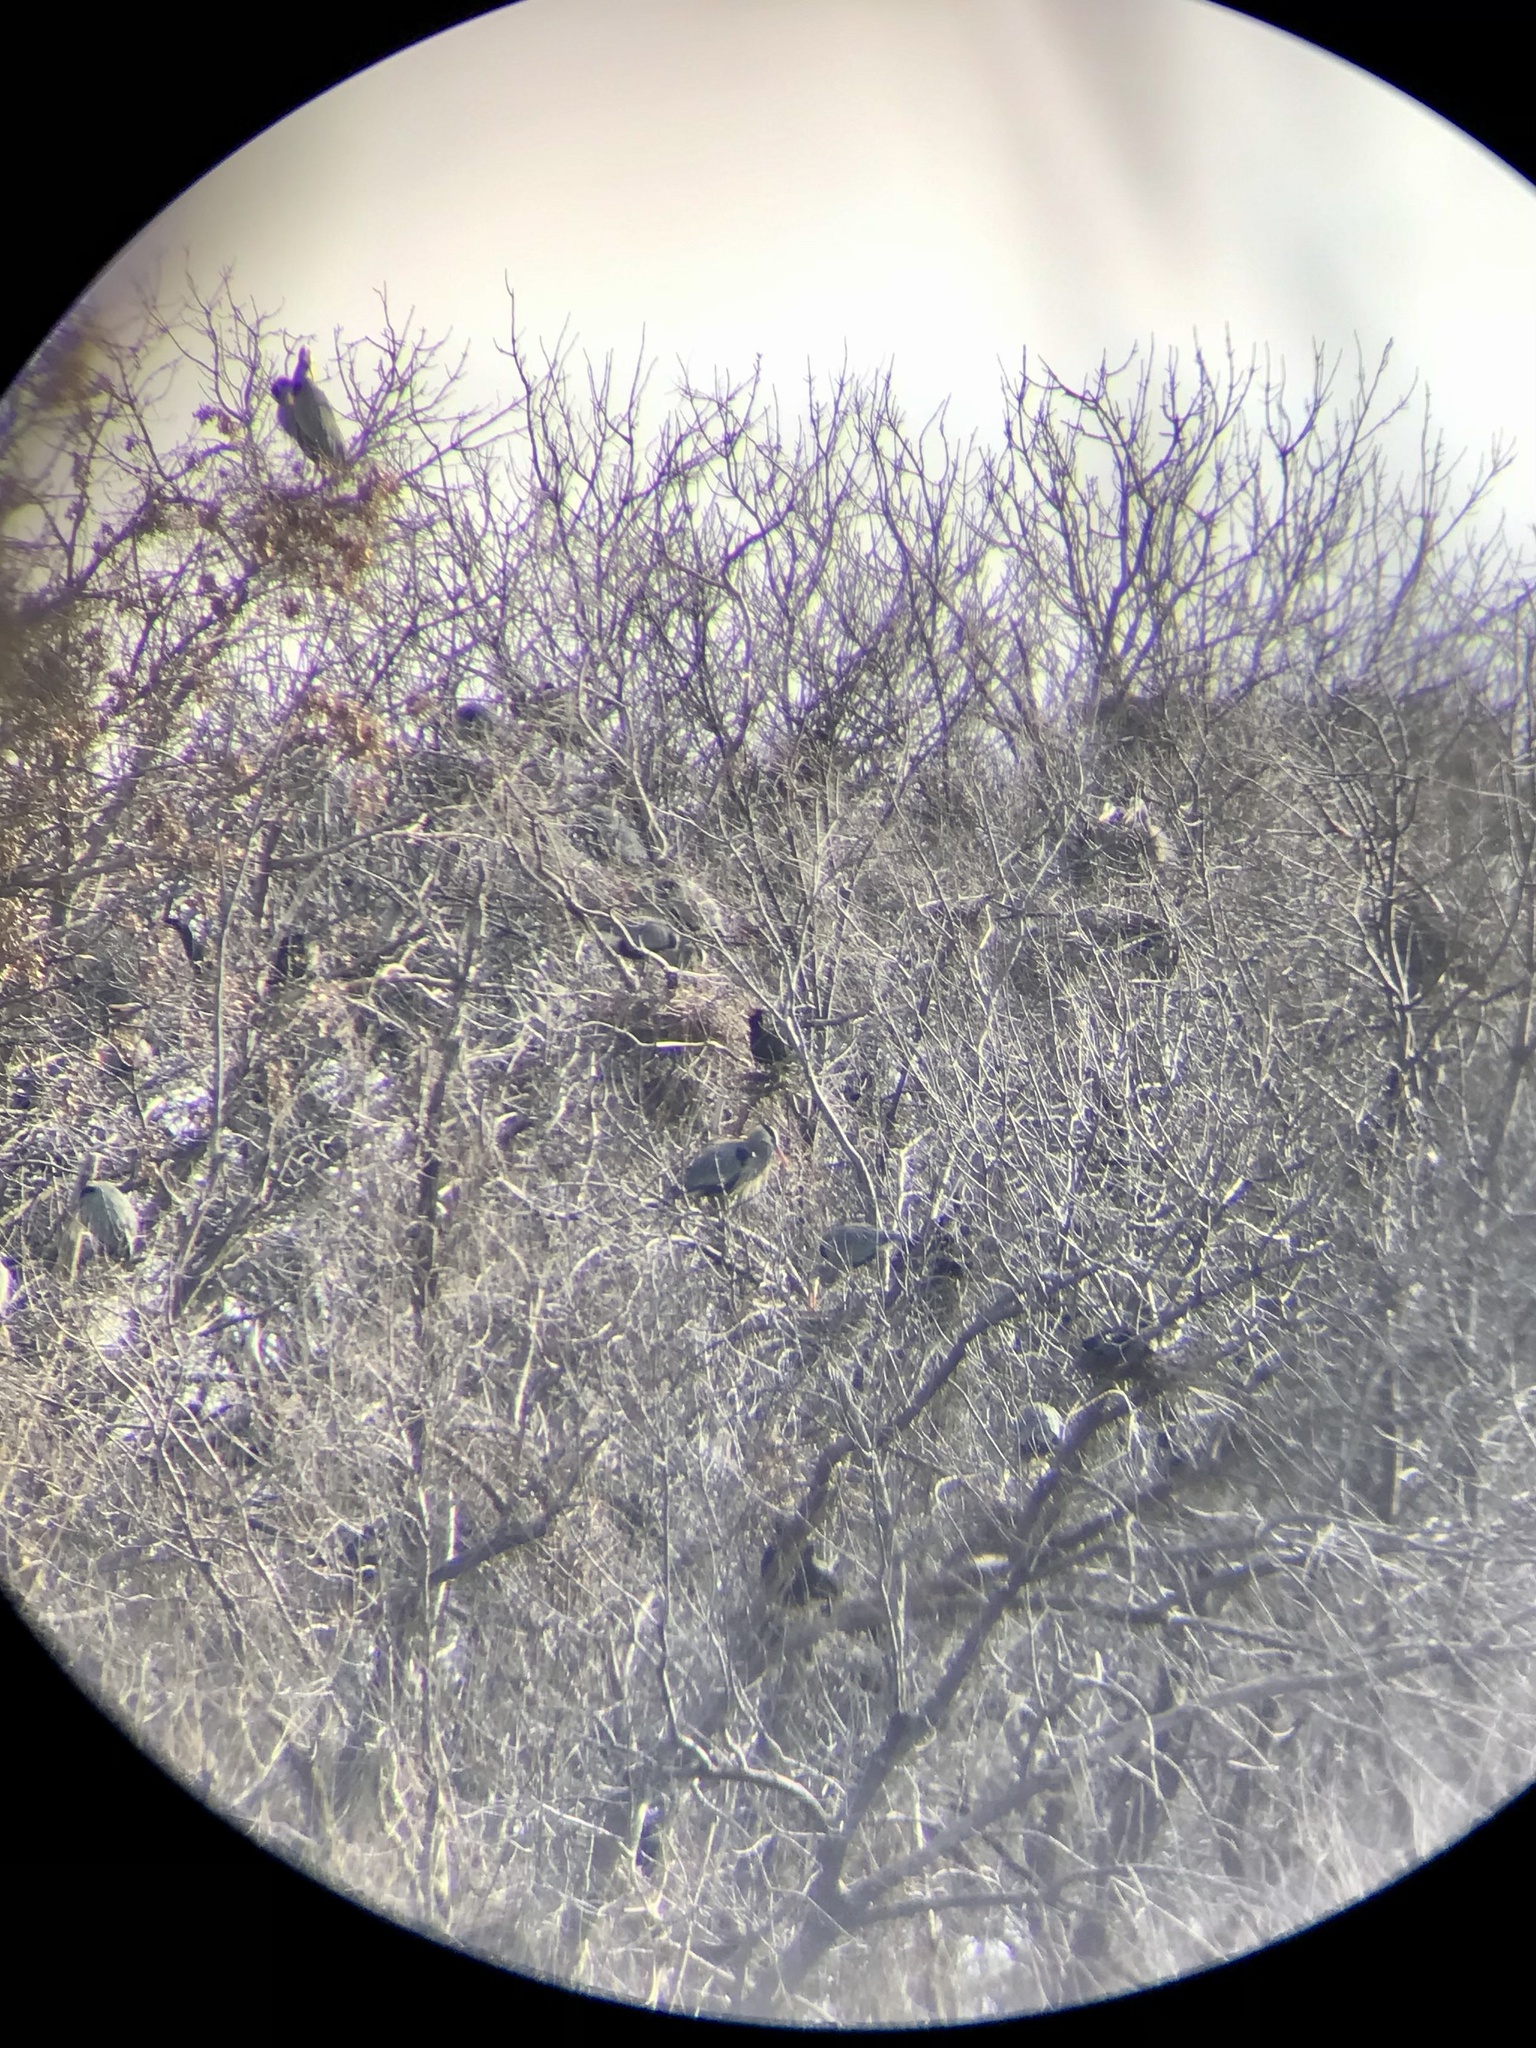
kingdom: Animalia
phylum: Chordata
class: Aves
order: Pelecaniformes
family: Ardeidae
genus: Ardea
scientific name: Ardea herodias
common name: Great blue heron
